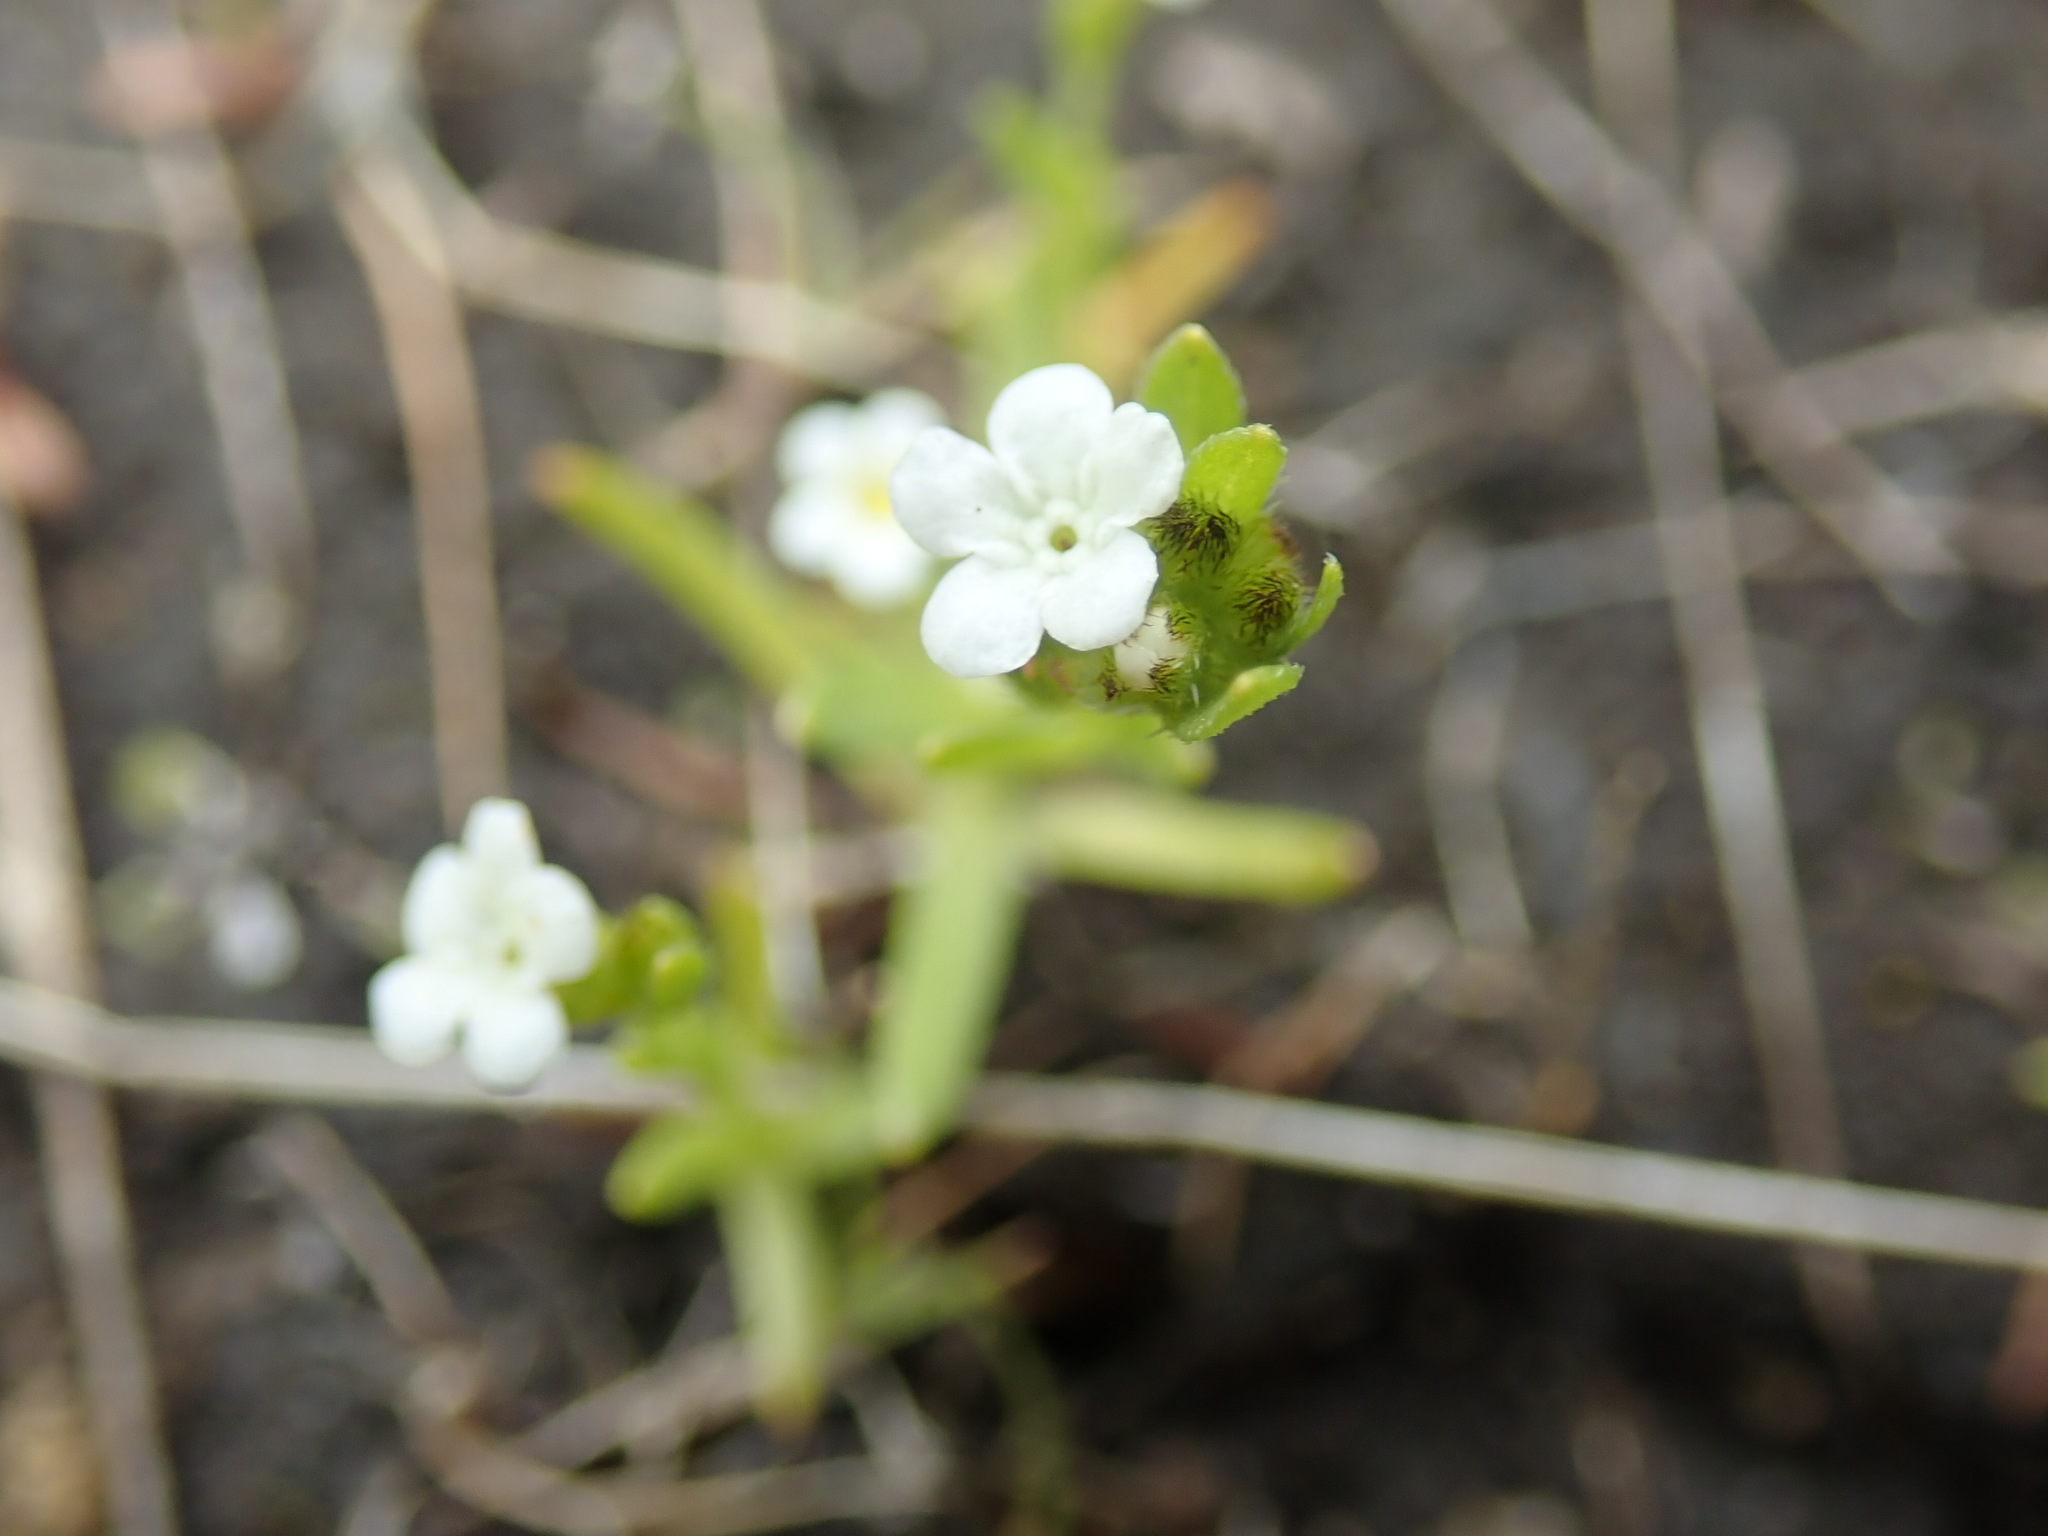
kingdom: Plantae
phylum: Tracheophyta
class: Magnoliopsida
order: Boraginales
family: Boraginaceae
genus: Plagiobothrys
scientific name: Plagiobothrys scouleri
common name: White forget-me-not
